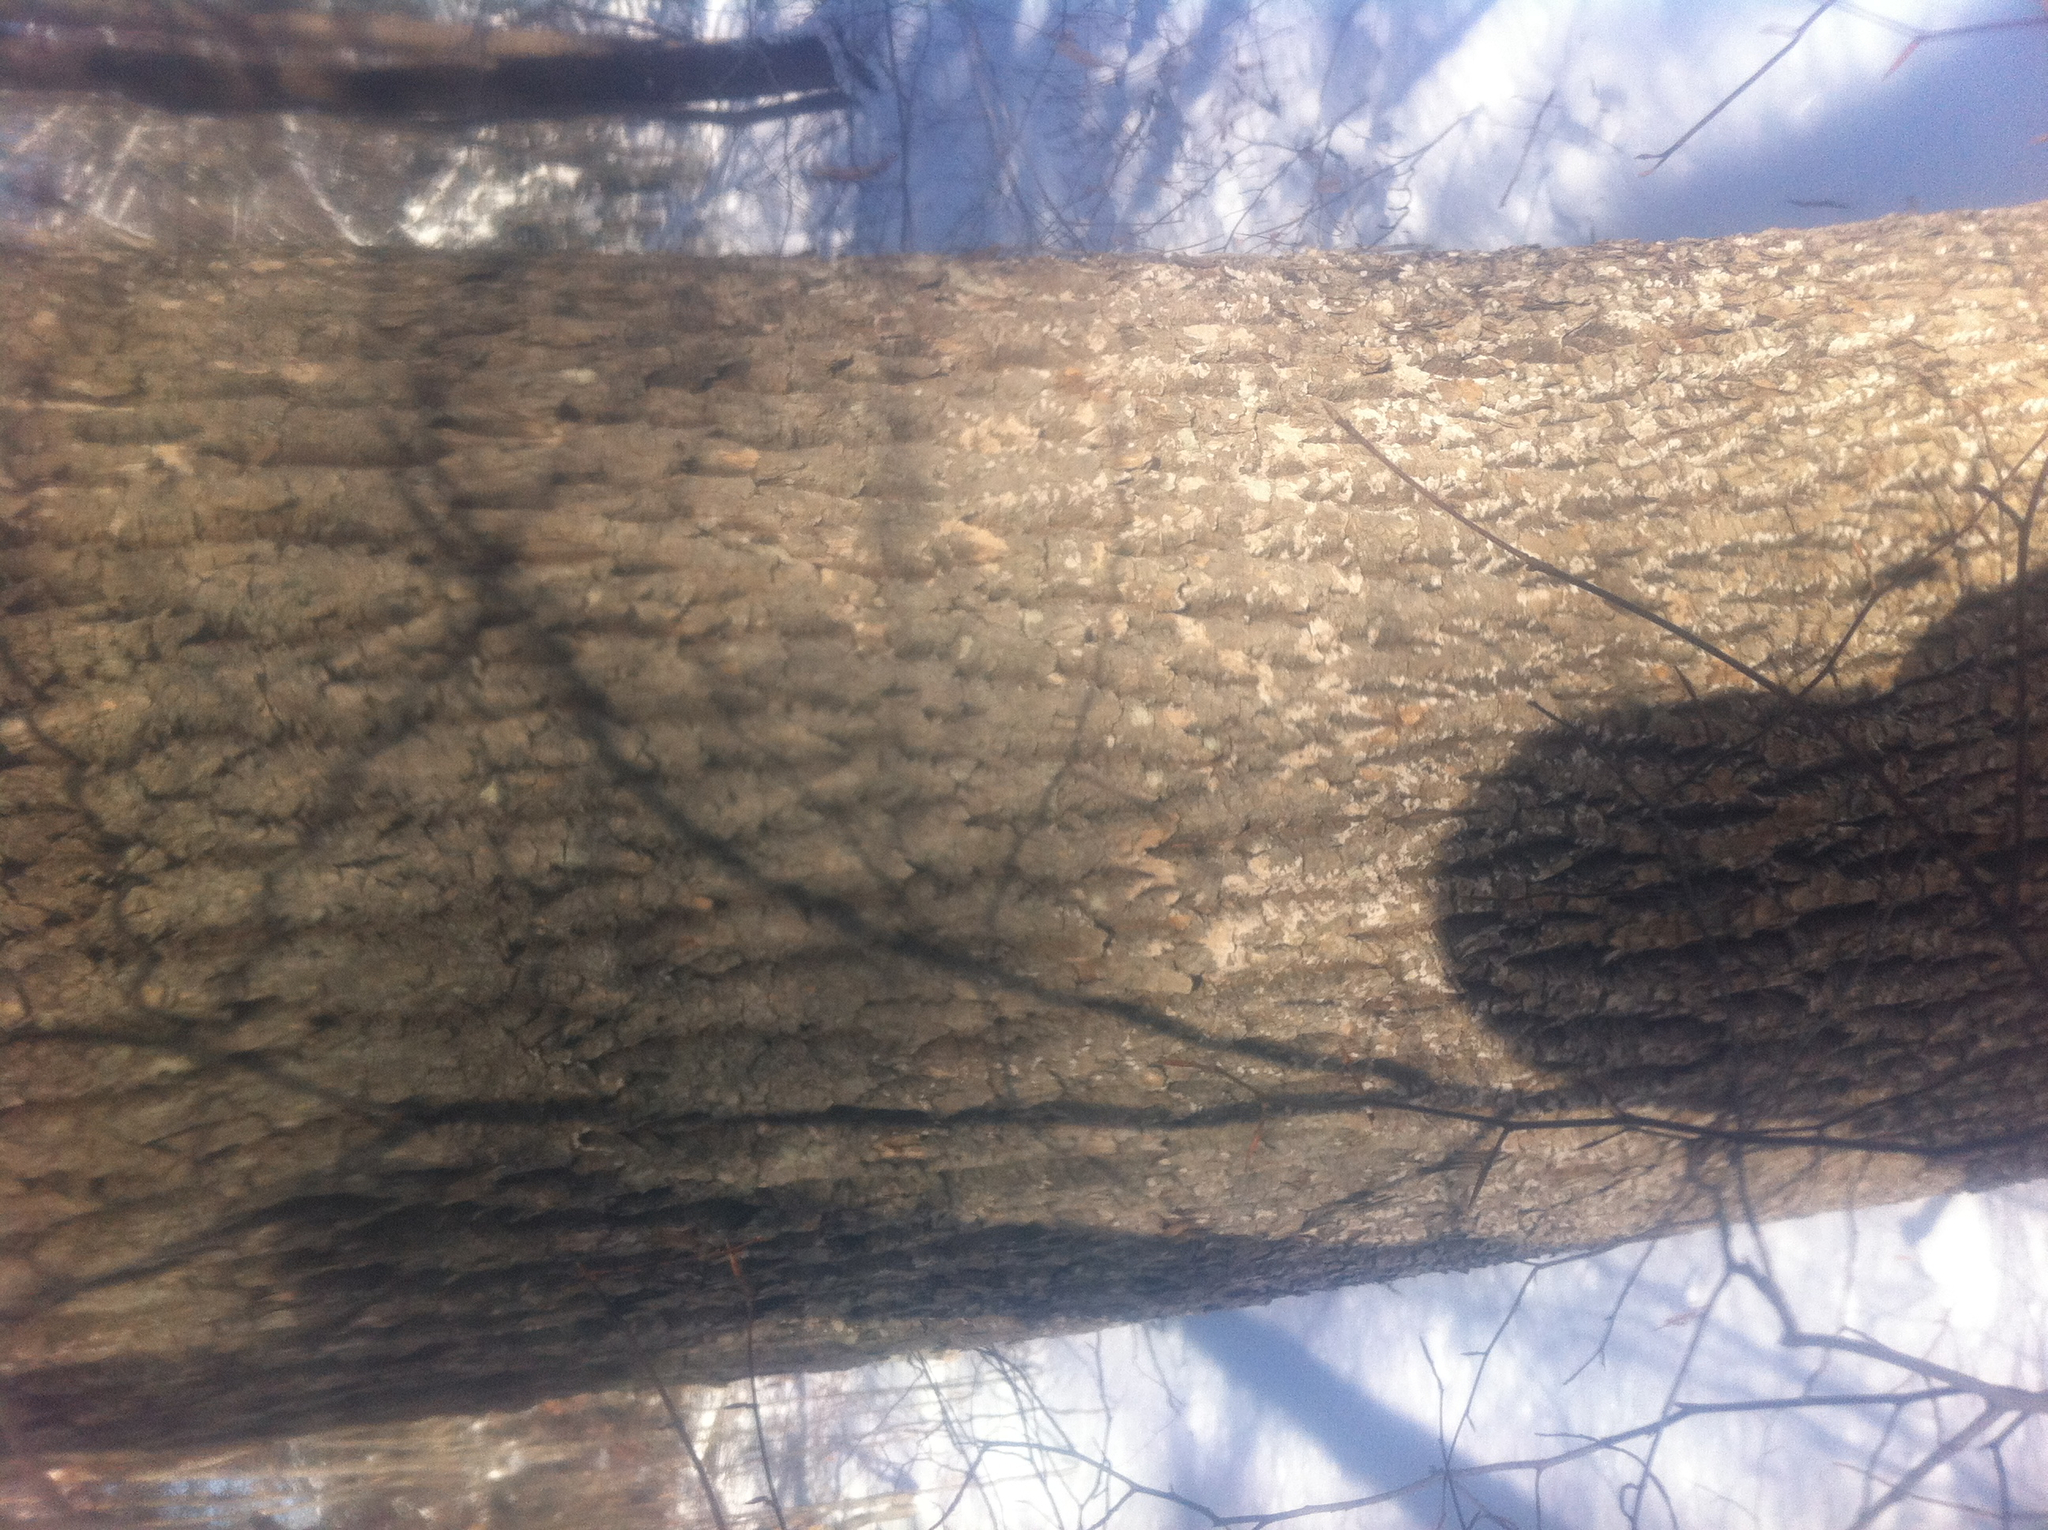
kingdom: Plantae
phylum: Tracheophyta
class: Magnoliopsida
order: Lamiales
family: Oleaceae
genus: Fraxinus
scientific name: Fraxinus americana
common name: White ash
